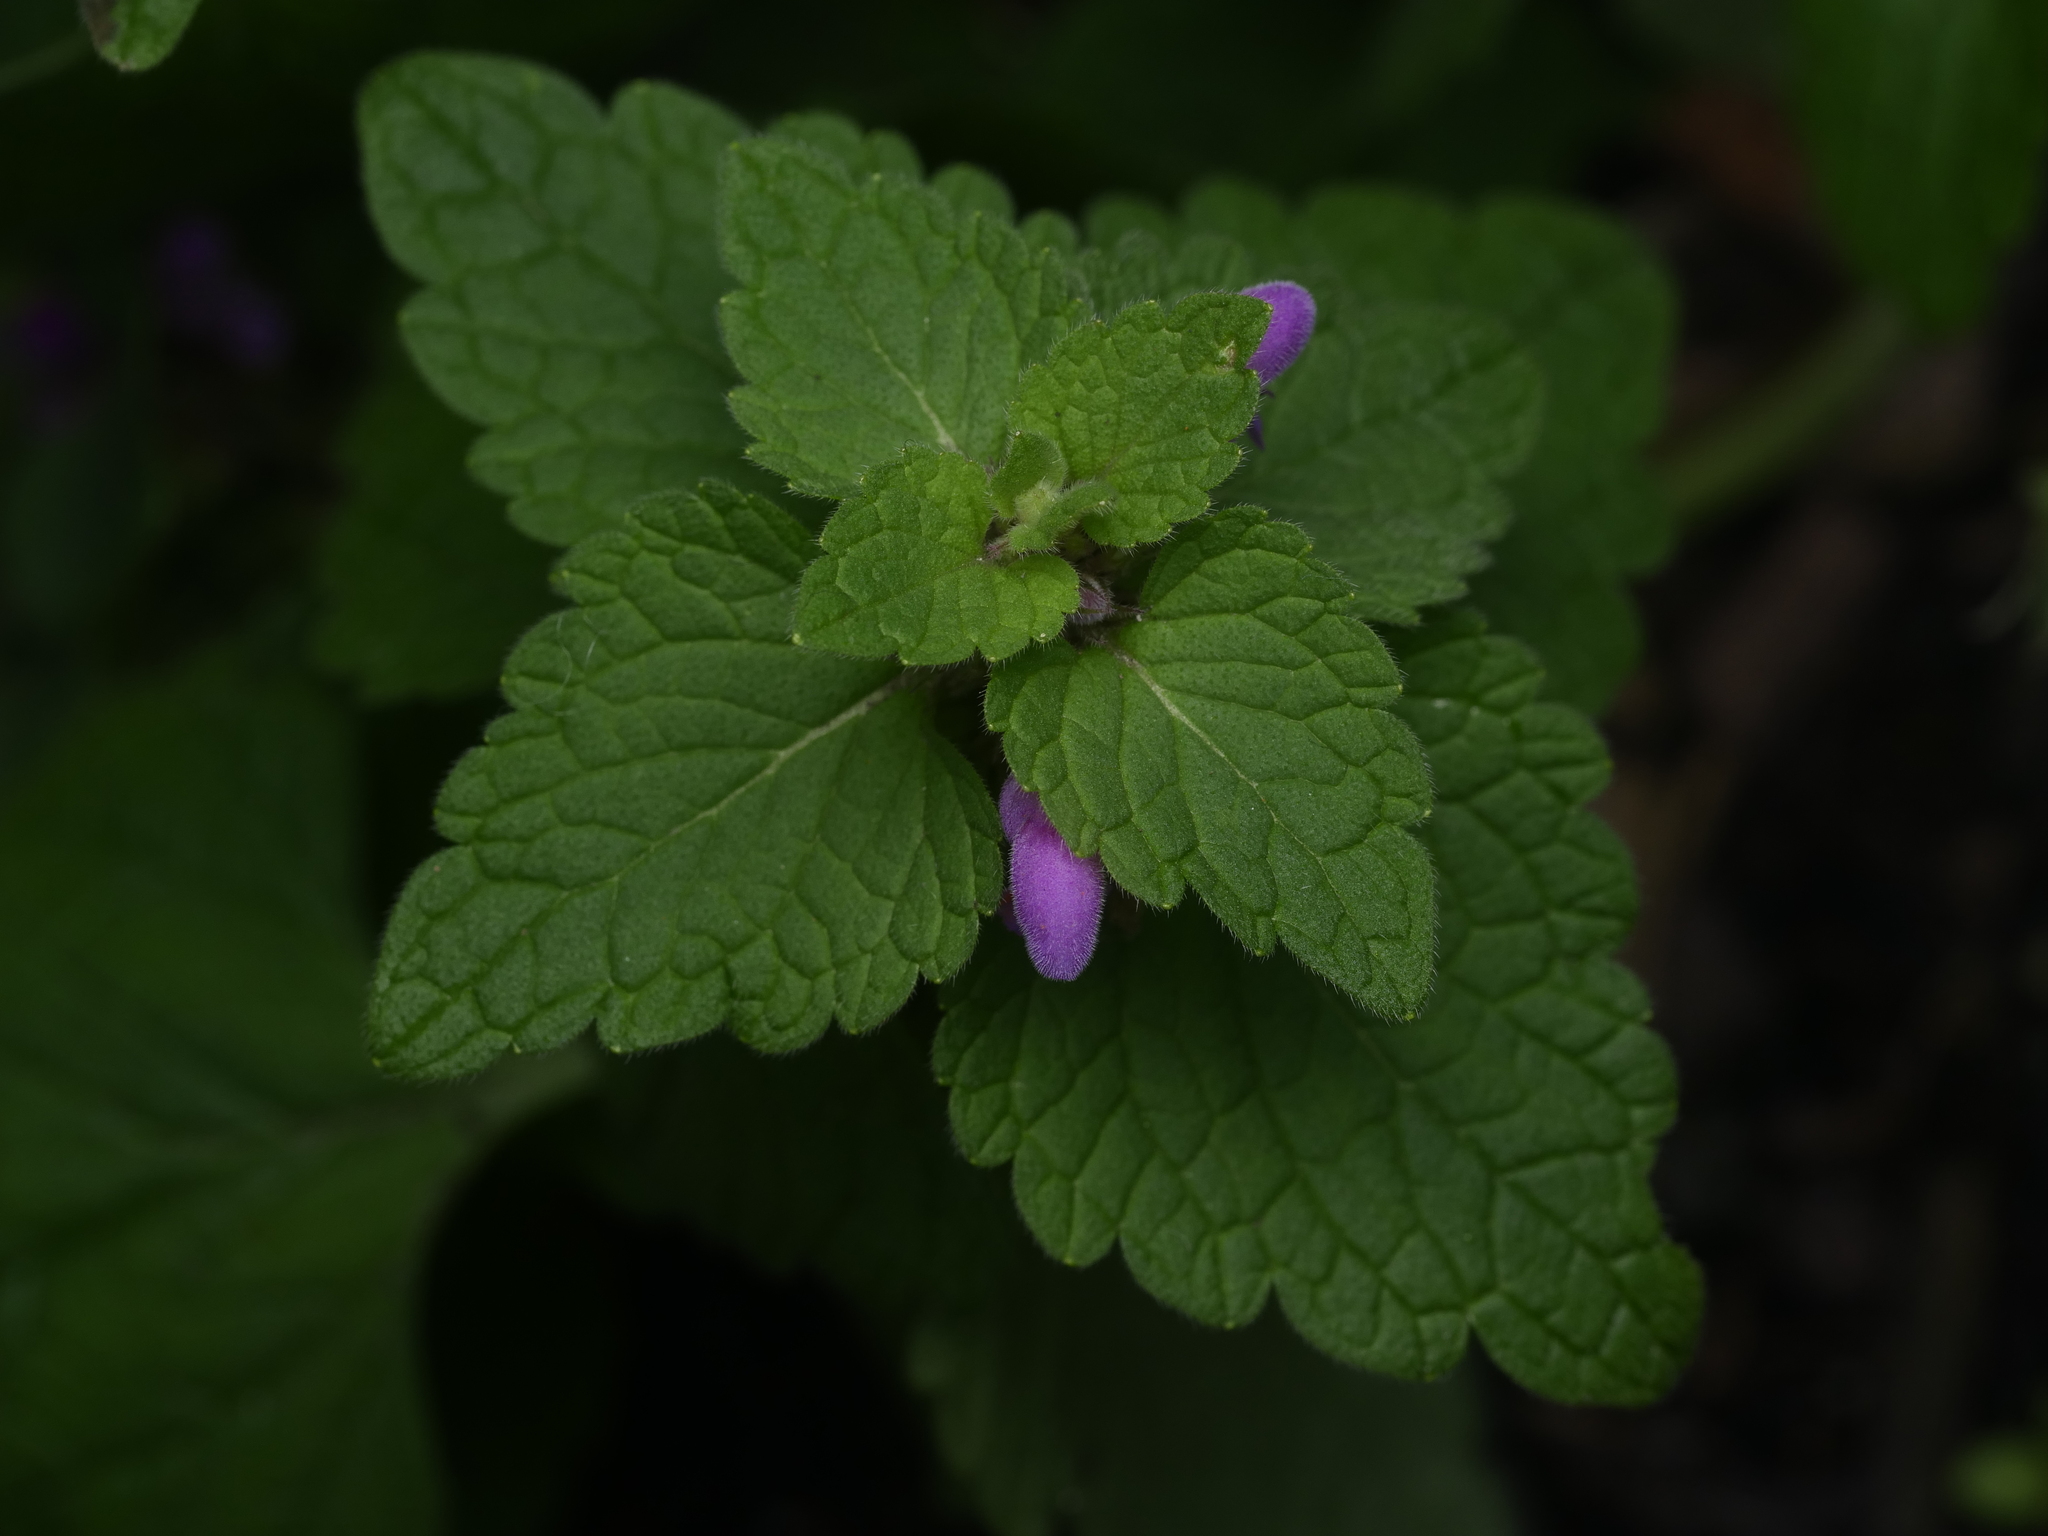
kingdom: Plantae
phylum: Tracheophyta
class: Magnoliopsida
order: Lamiales
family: Lamiaceae
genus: Lamium
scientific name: Lamium purpureum
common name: Red dead-nettle
